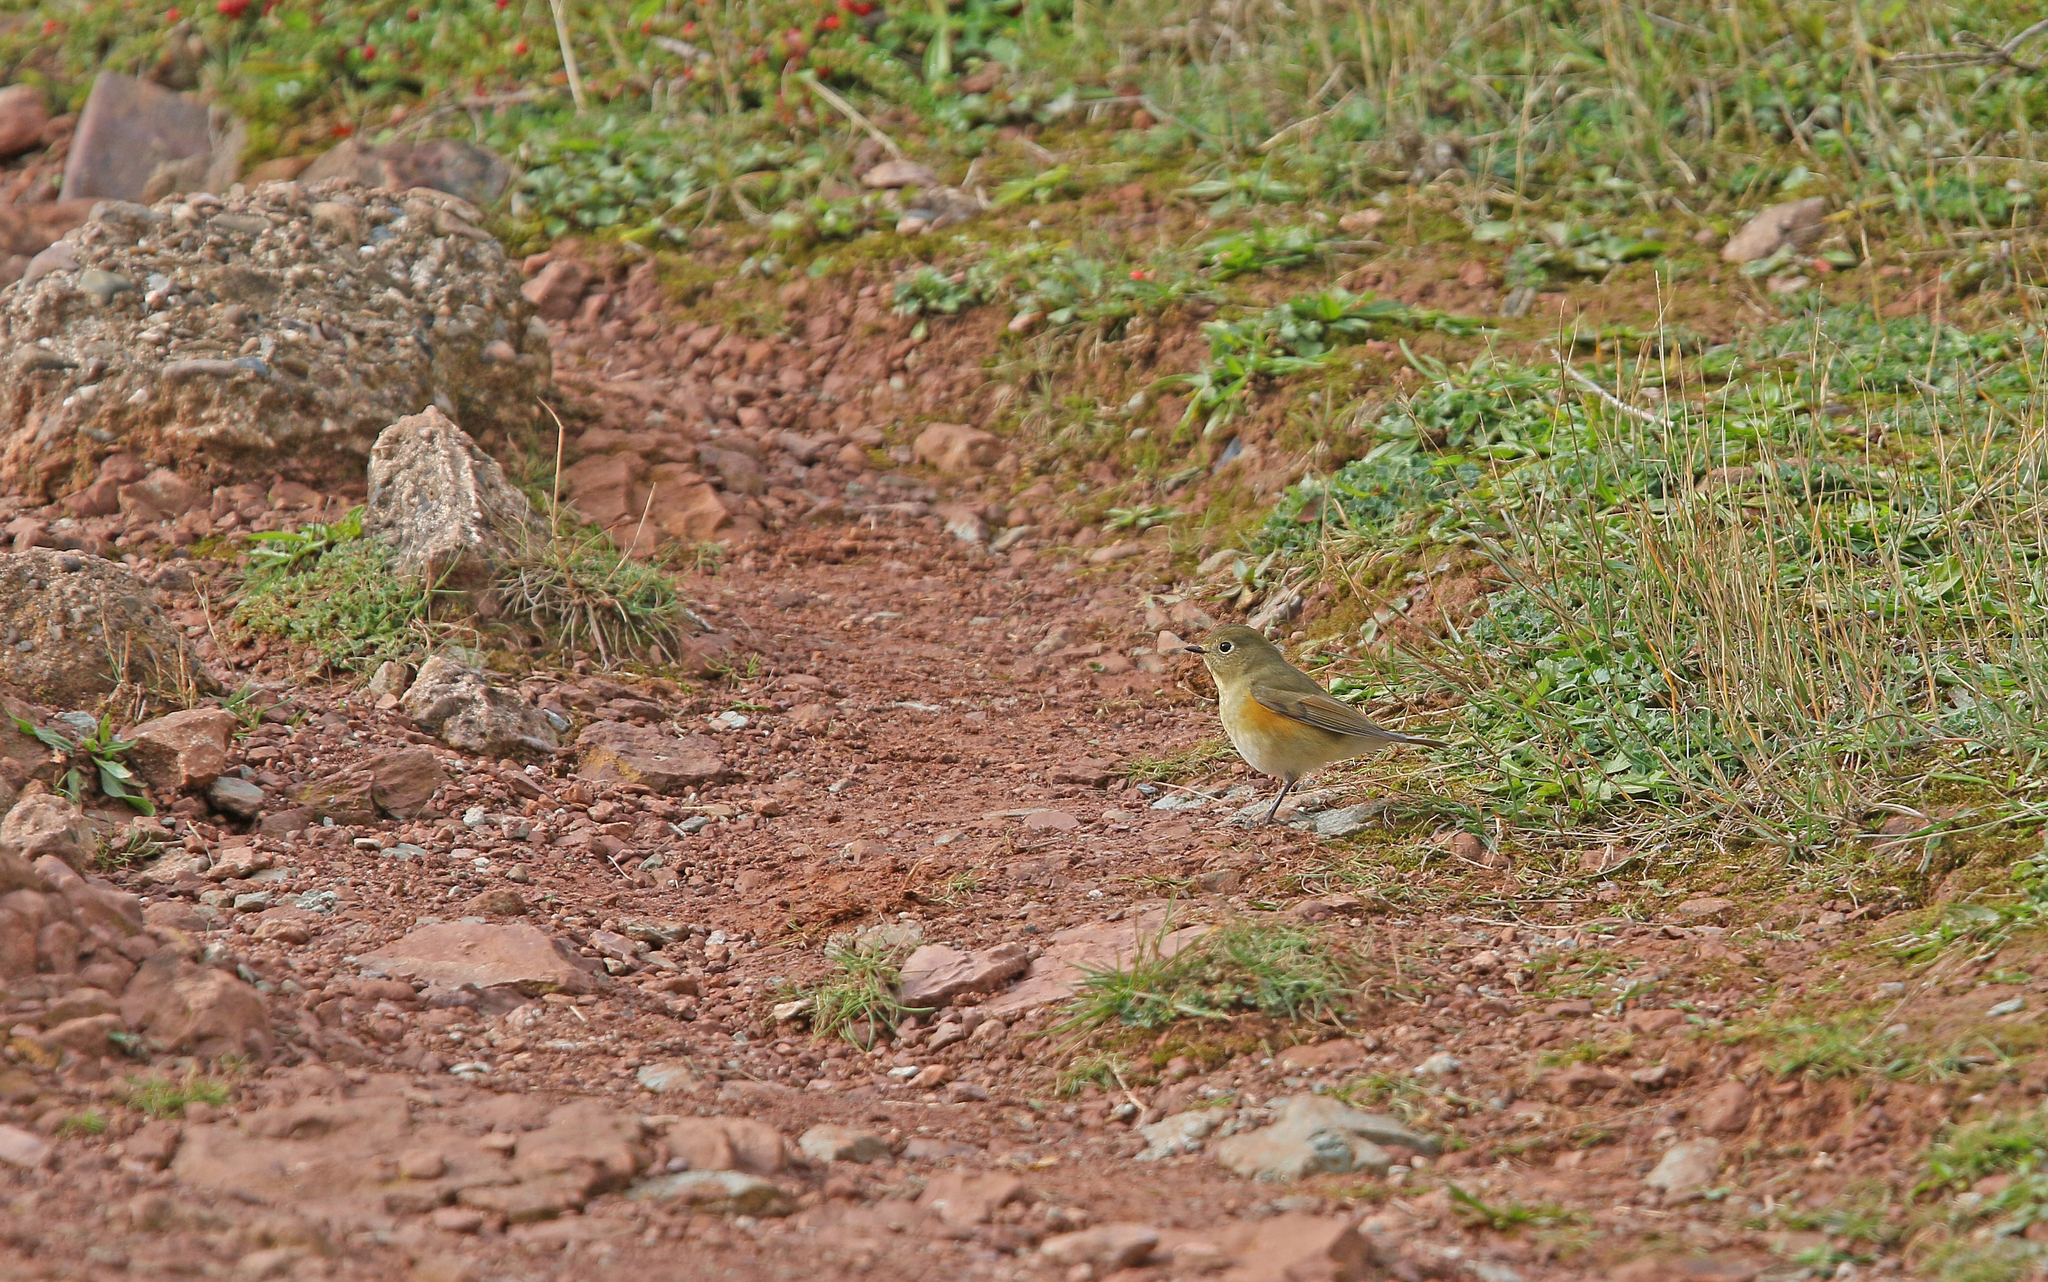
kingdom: Animalia
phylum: Chordata
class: Aves
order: Passeriformes
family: Muscicapidae
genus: Tarsiger
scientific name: Tarsiger cyanurus
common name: Red-flanked bluetail
